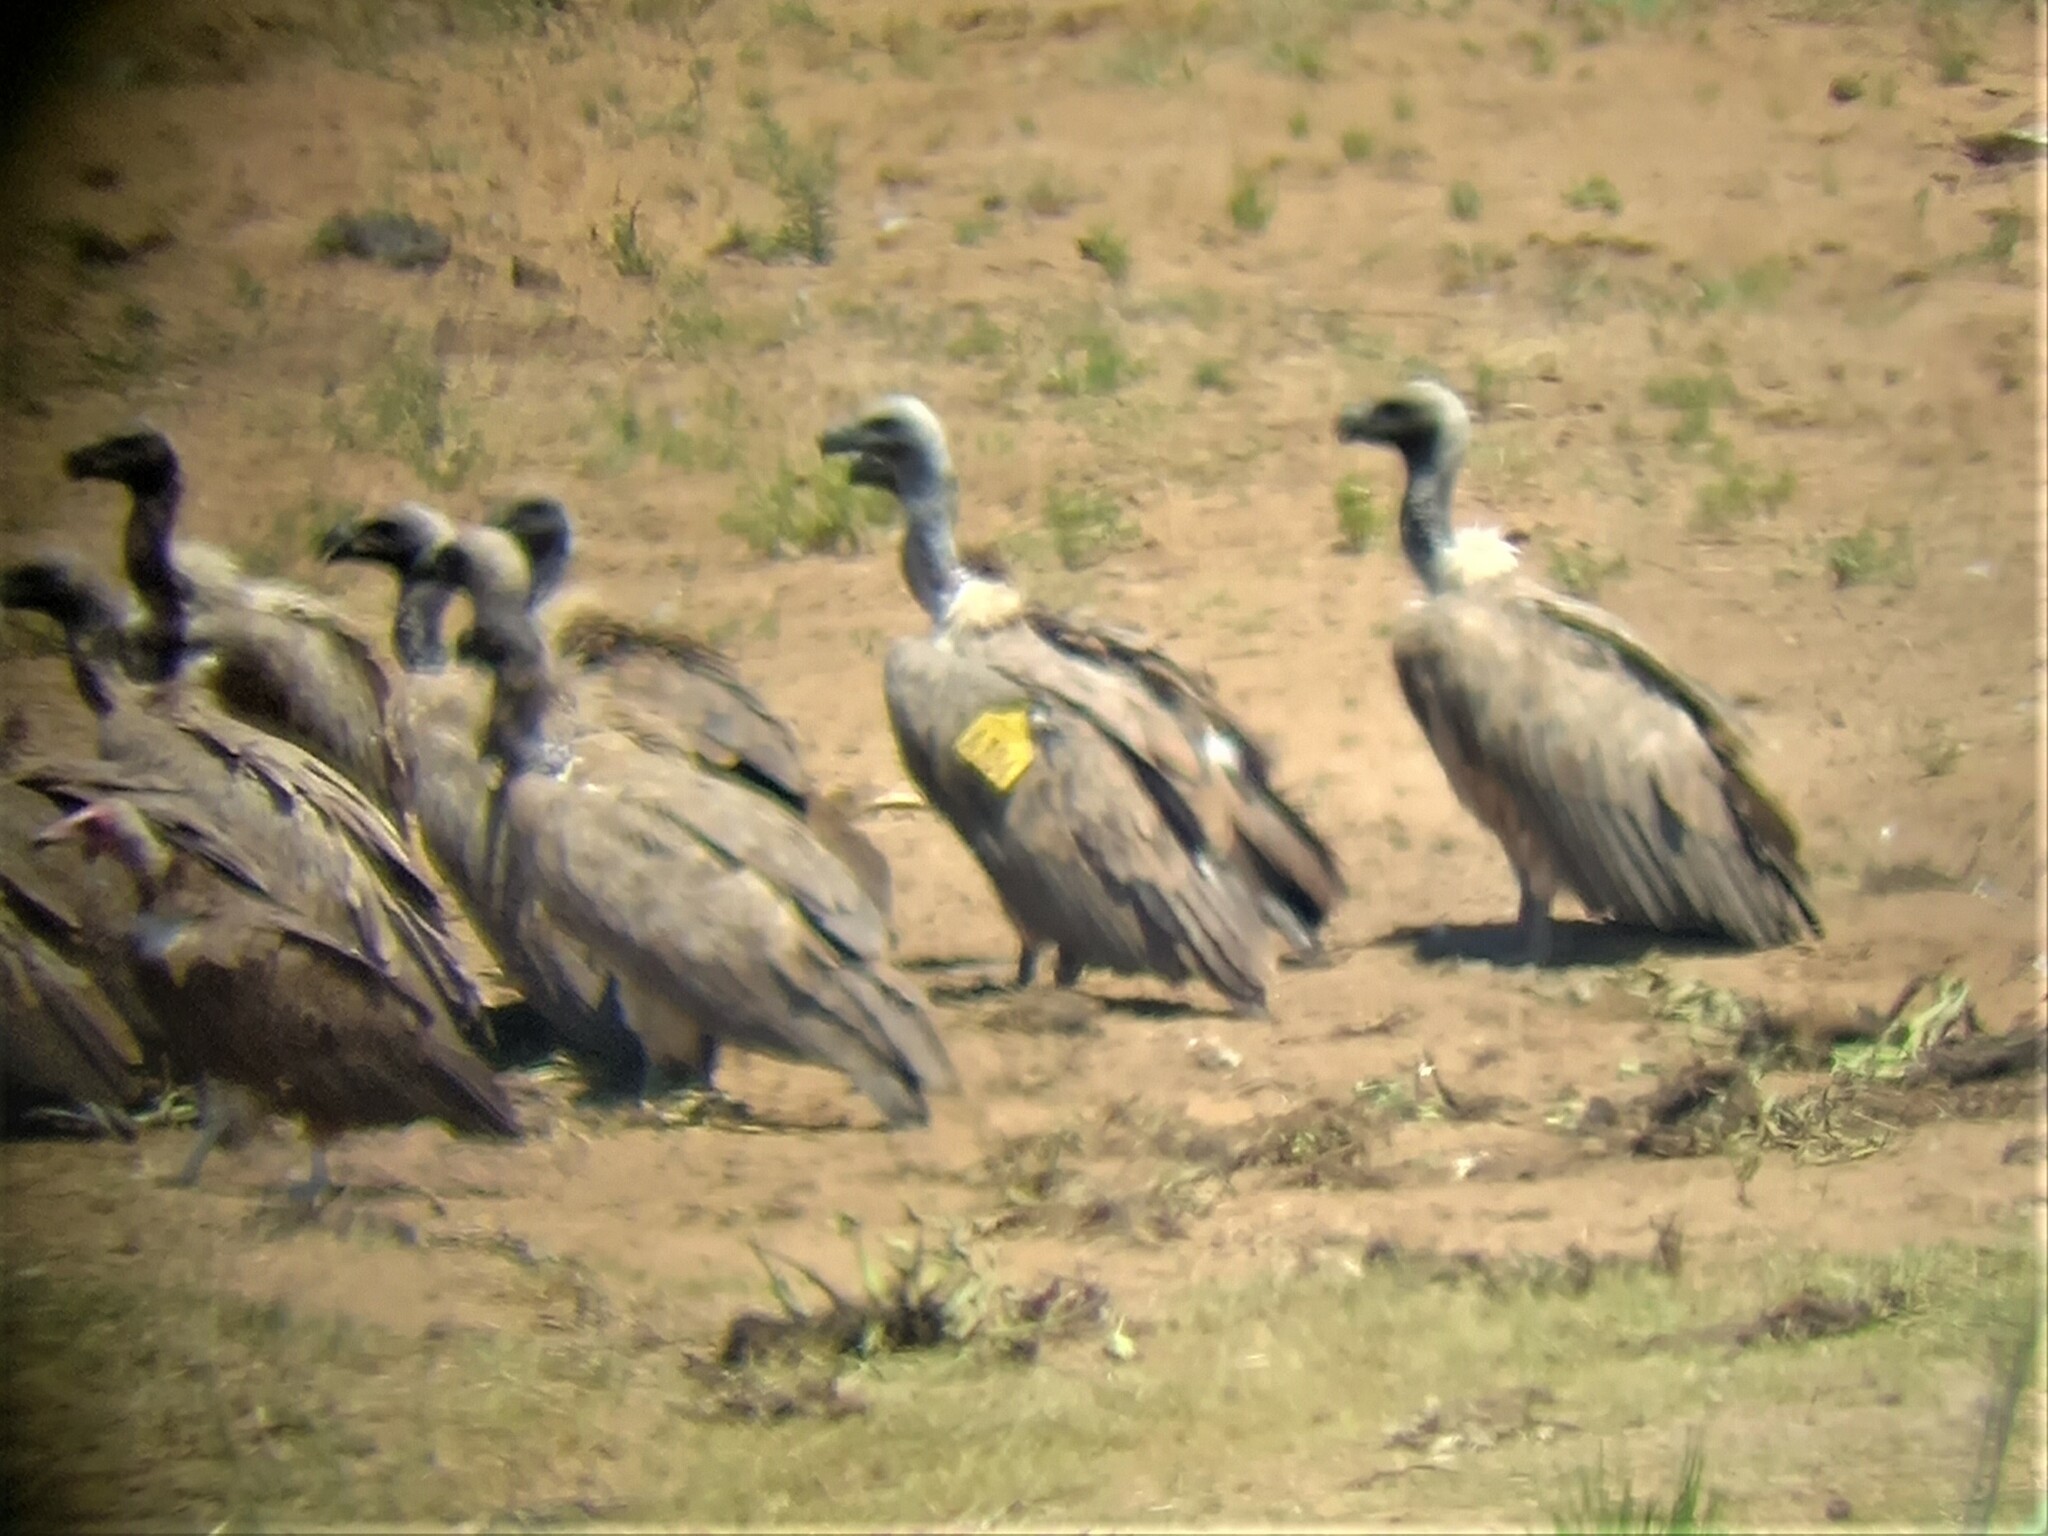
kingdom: Animalia
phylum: Chordata
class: Aves
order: Accipitriformes
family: Accipitridae
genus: Gyps
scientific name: Gyps africanus
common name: White-backed vulture
